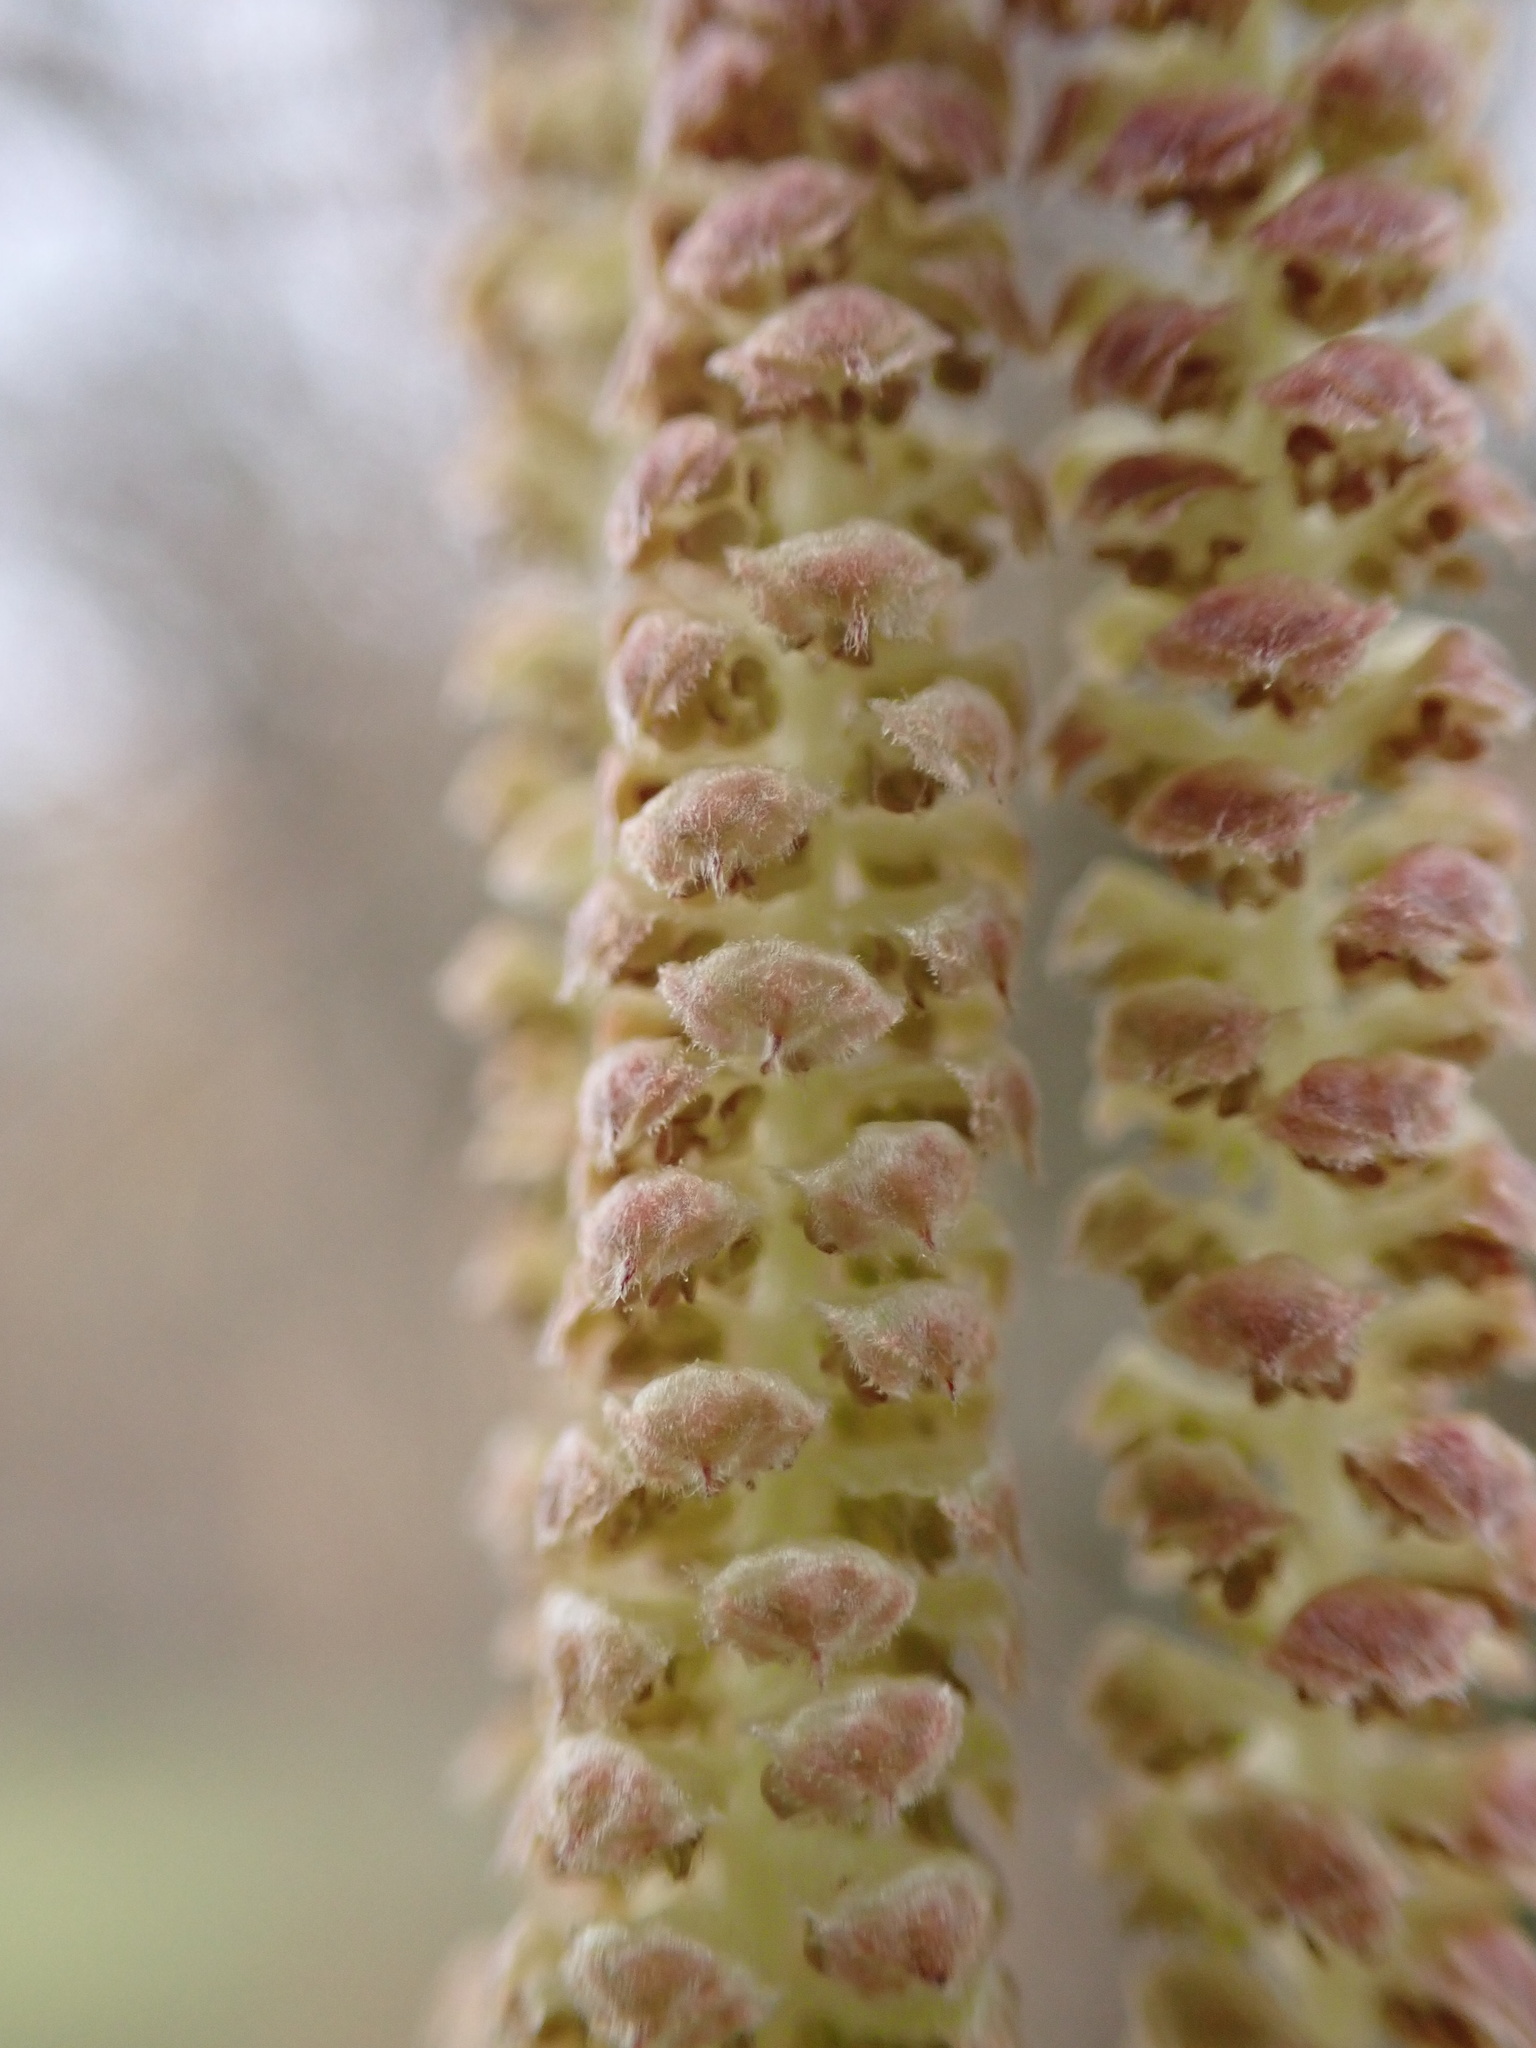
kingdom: Plantae
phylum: Tracheophyta
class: Magnoliopsida
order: Fagales
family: Betulaceae
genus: Corylus
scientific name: Corylus avellana
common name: European hazel
